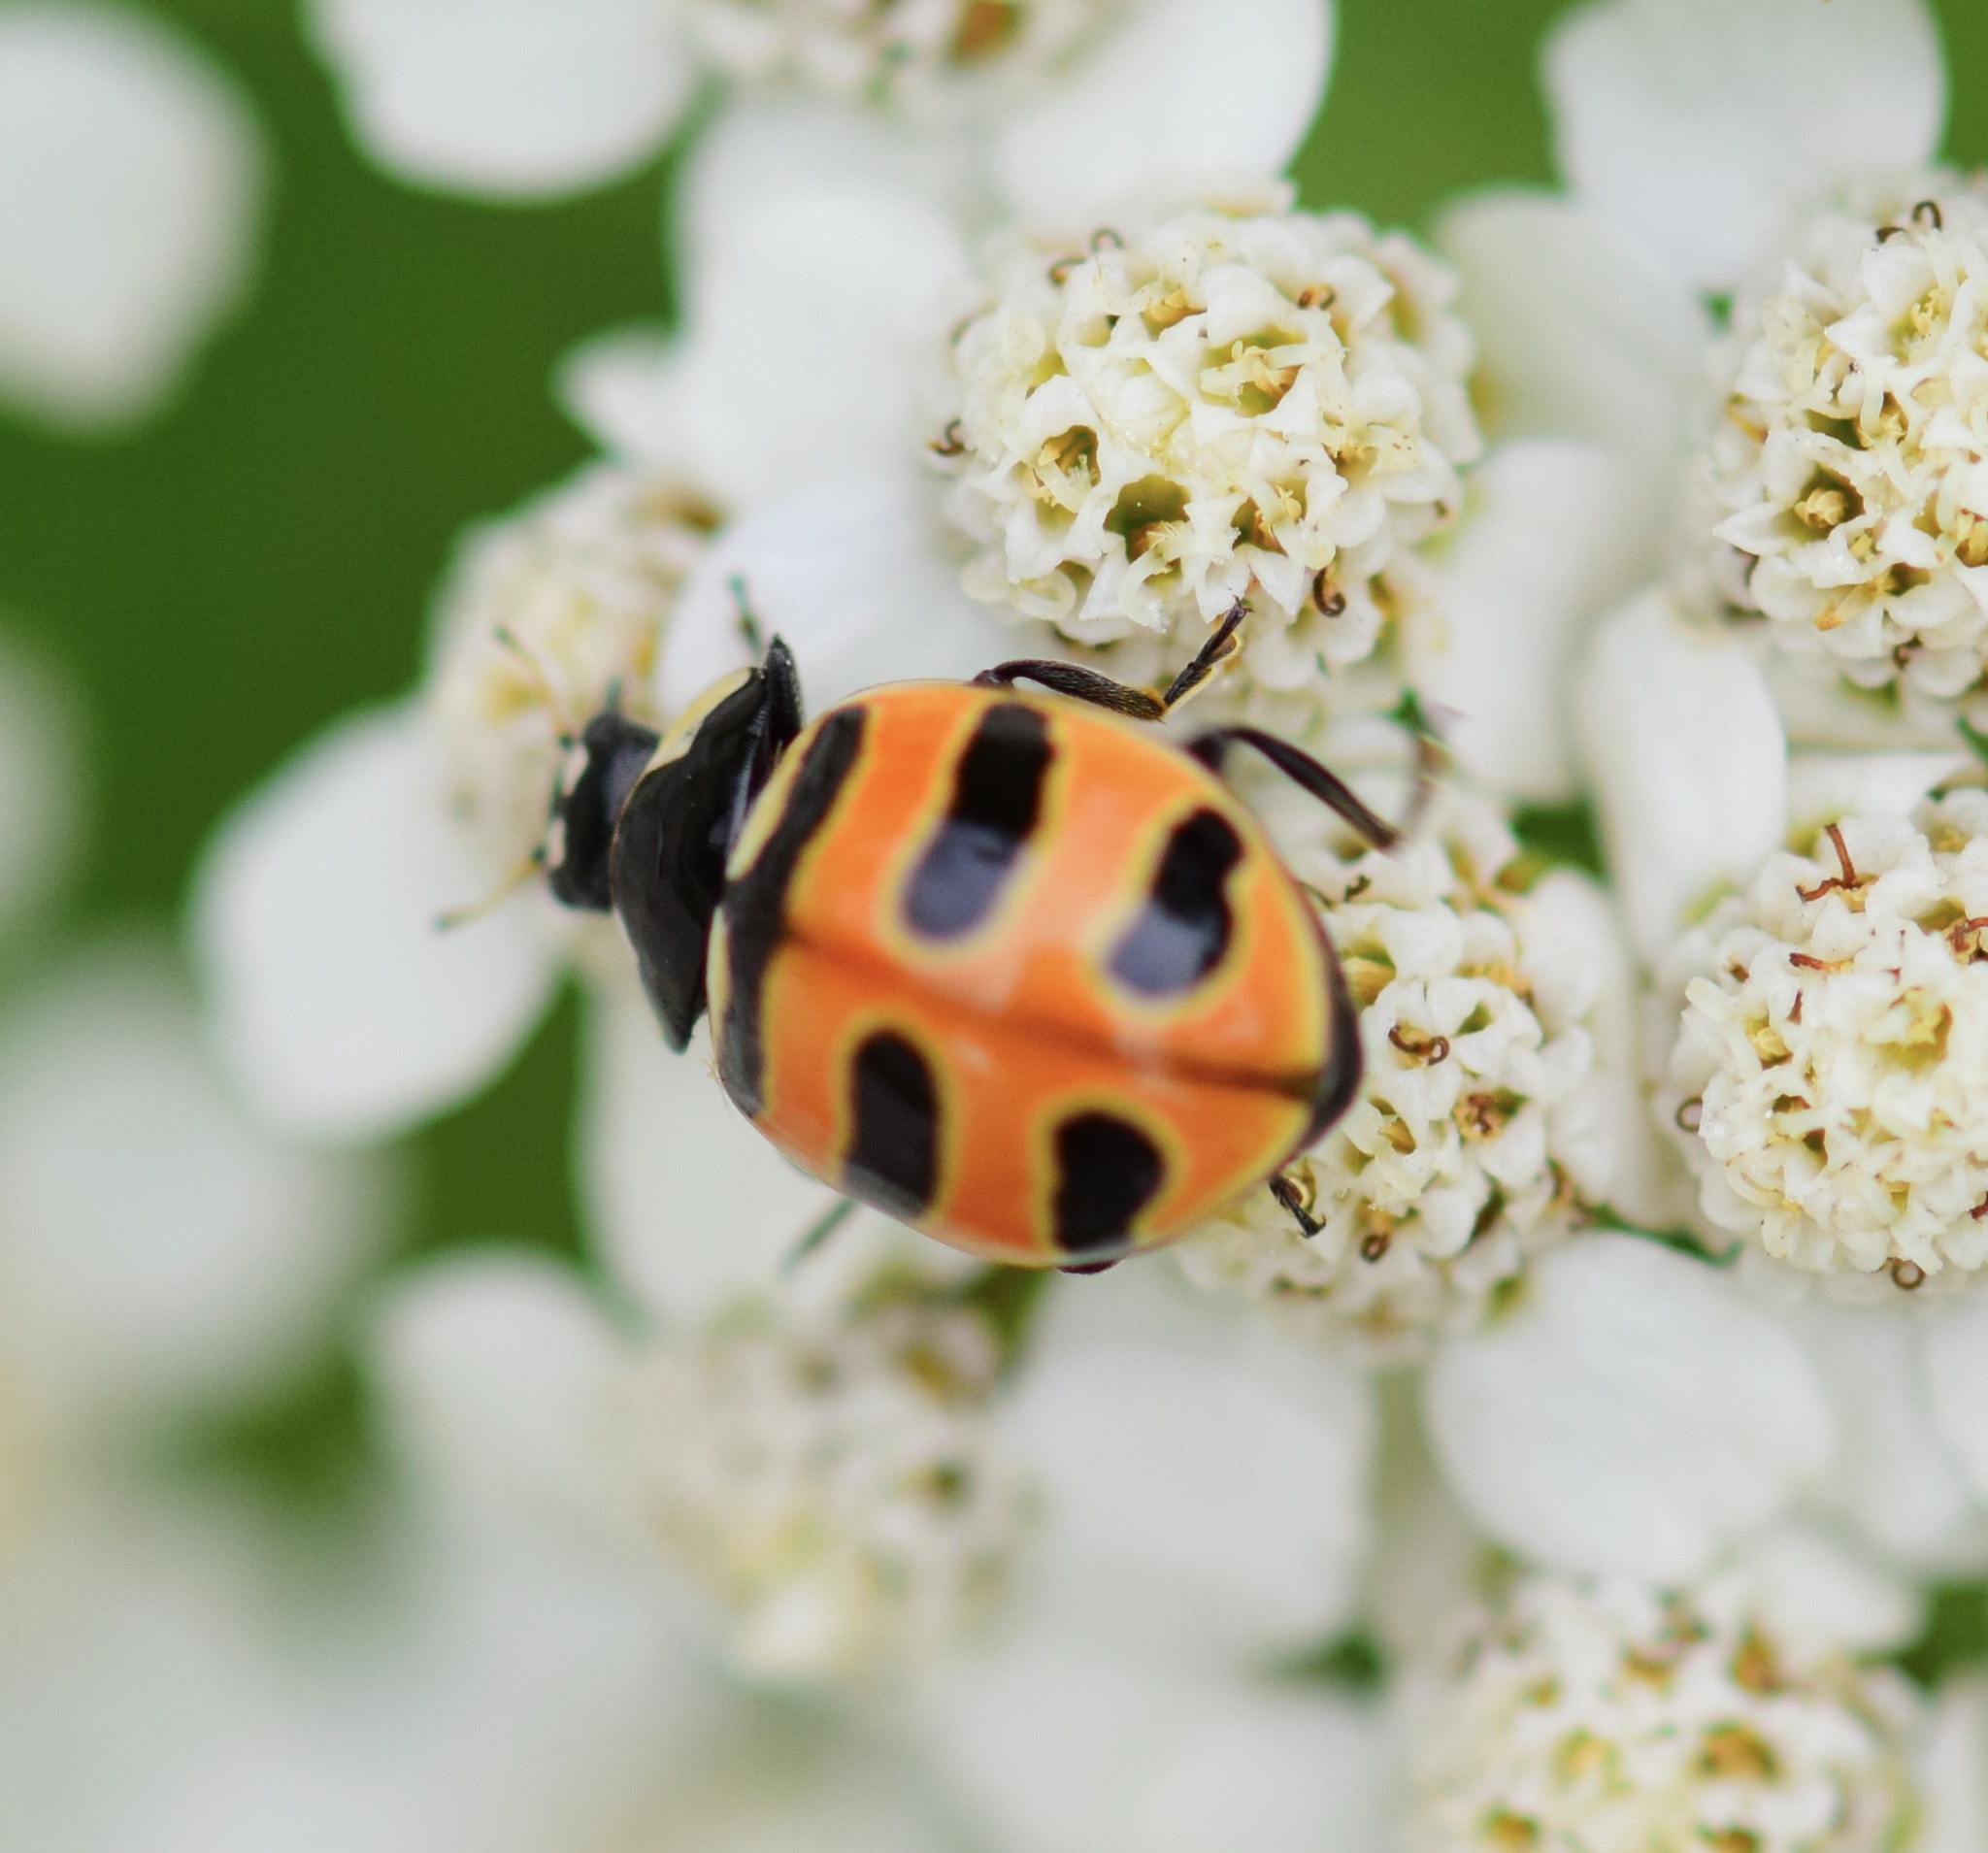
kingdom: Animalia
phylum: Arthropoda
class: Insecta
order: Coleoptera
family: Coccinellidae
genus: Coccinella
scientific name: Coccinella trifasciata
